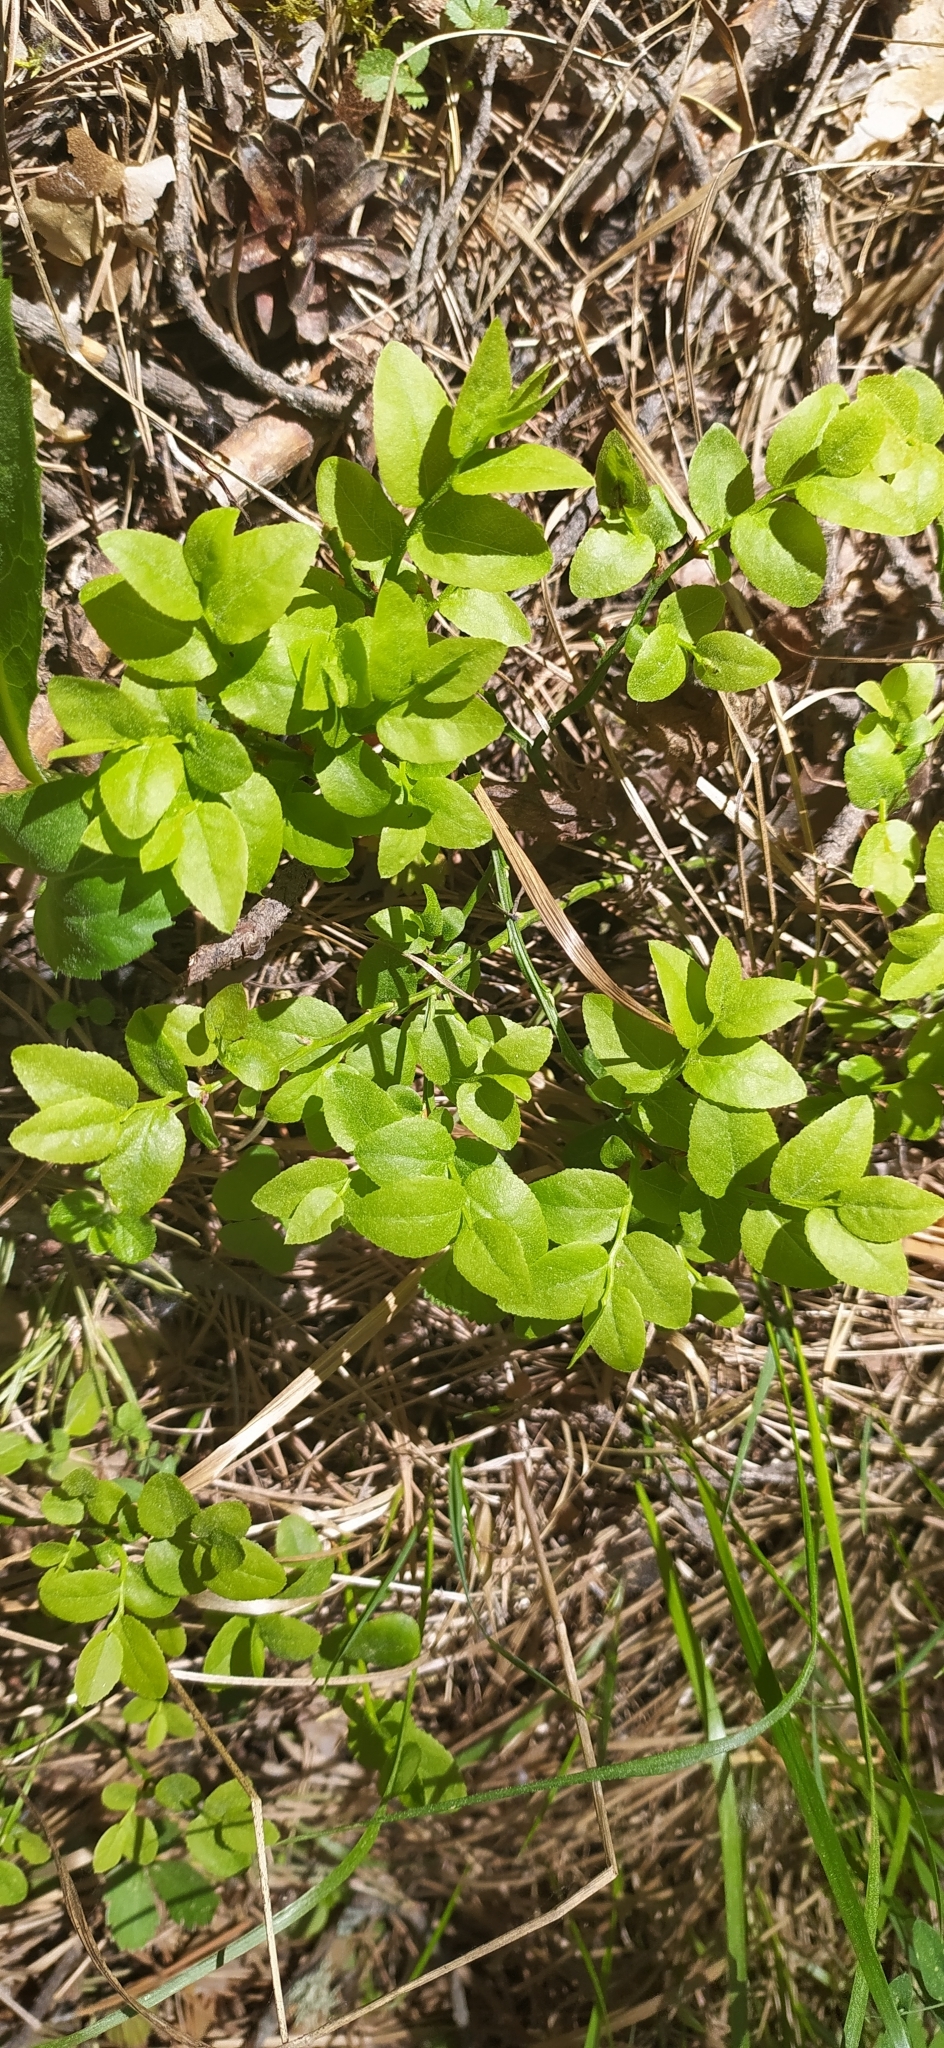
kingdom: Plantae
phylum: Tracheophyta
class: Magnoliopsida
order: Ericales
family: Ericaceae
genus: Vaccinium
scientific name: Vaccinium myrtillus
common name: Bilberry
